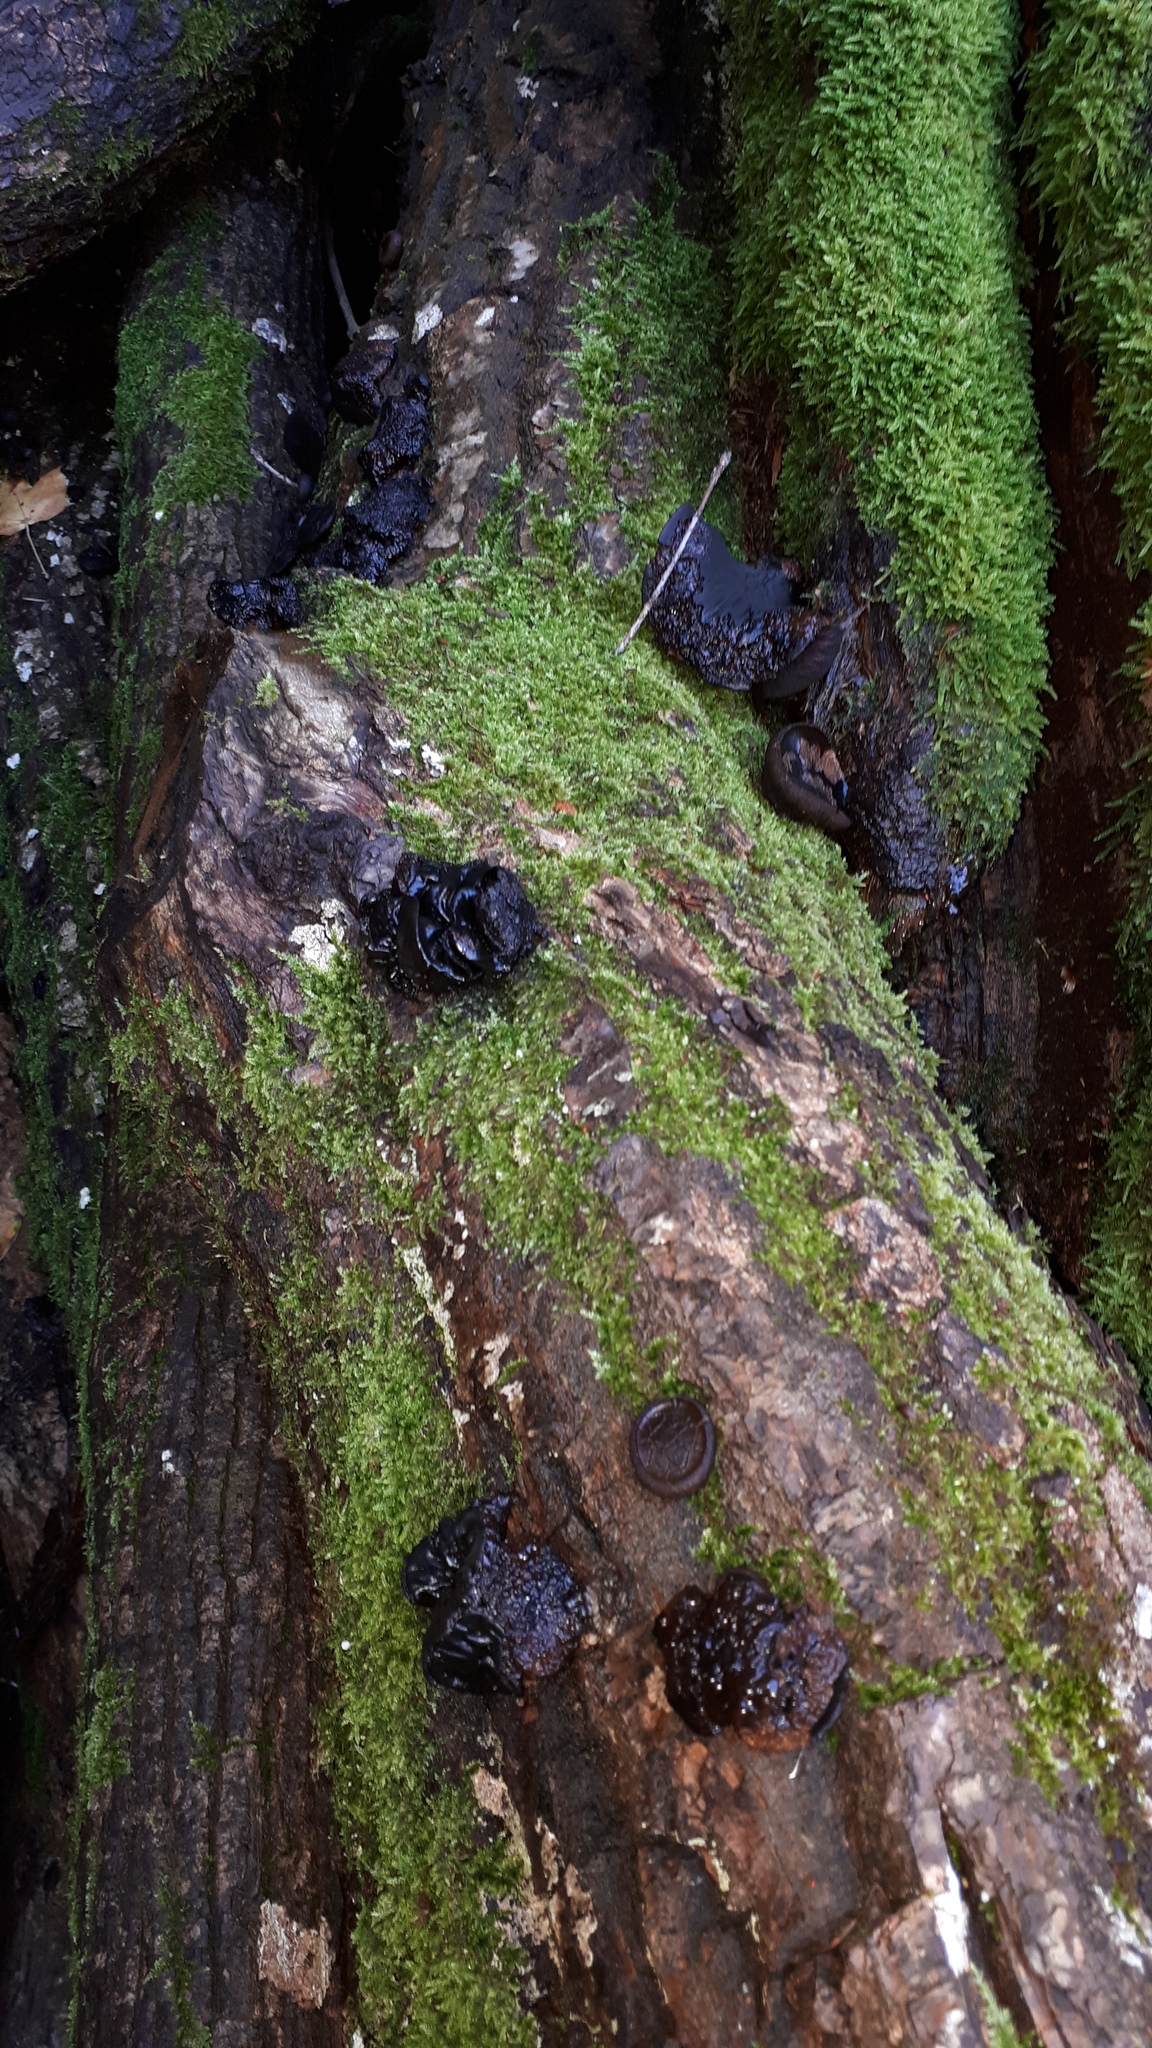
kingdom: Fungi
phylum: Ascomycota
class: Leotiomycetes
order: Phacidiales
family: Phacidiaceae
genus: Bulgaria
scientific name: Bulgaria inquinans
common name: Black bulgar
